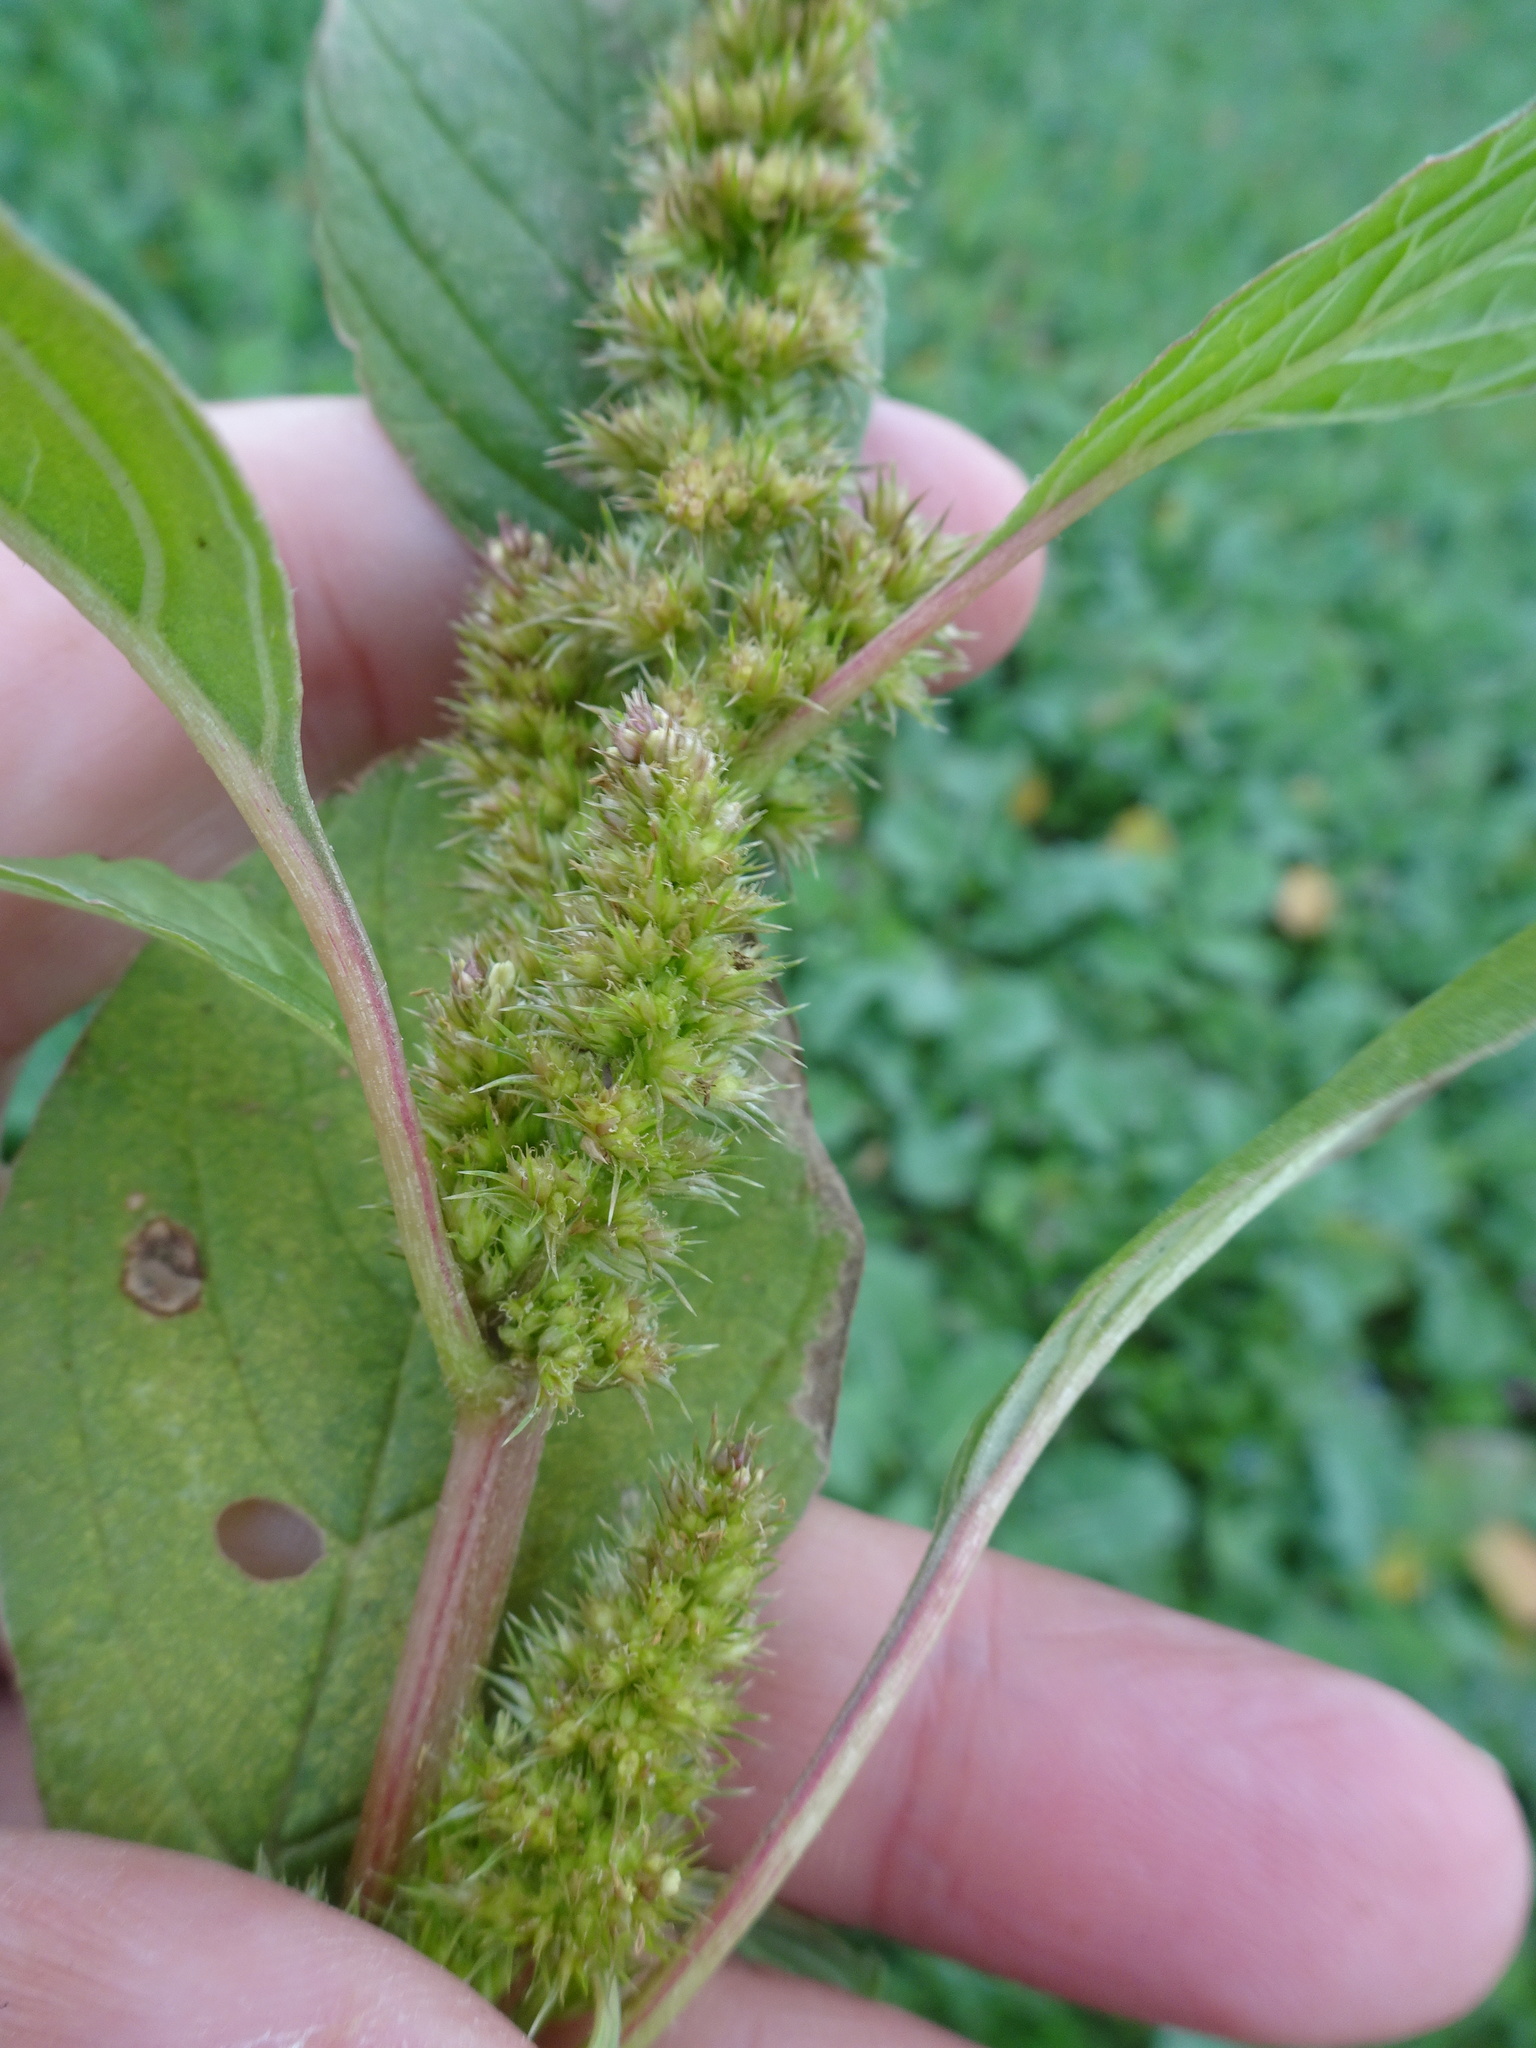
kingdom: Plantae
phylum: Tracheophyta
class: Magnoliopsida
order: Caryophyllales
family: Amaranthaceae
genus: Amaranthus
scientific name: Amaranthus powellii
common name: Powell's amaranth
